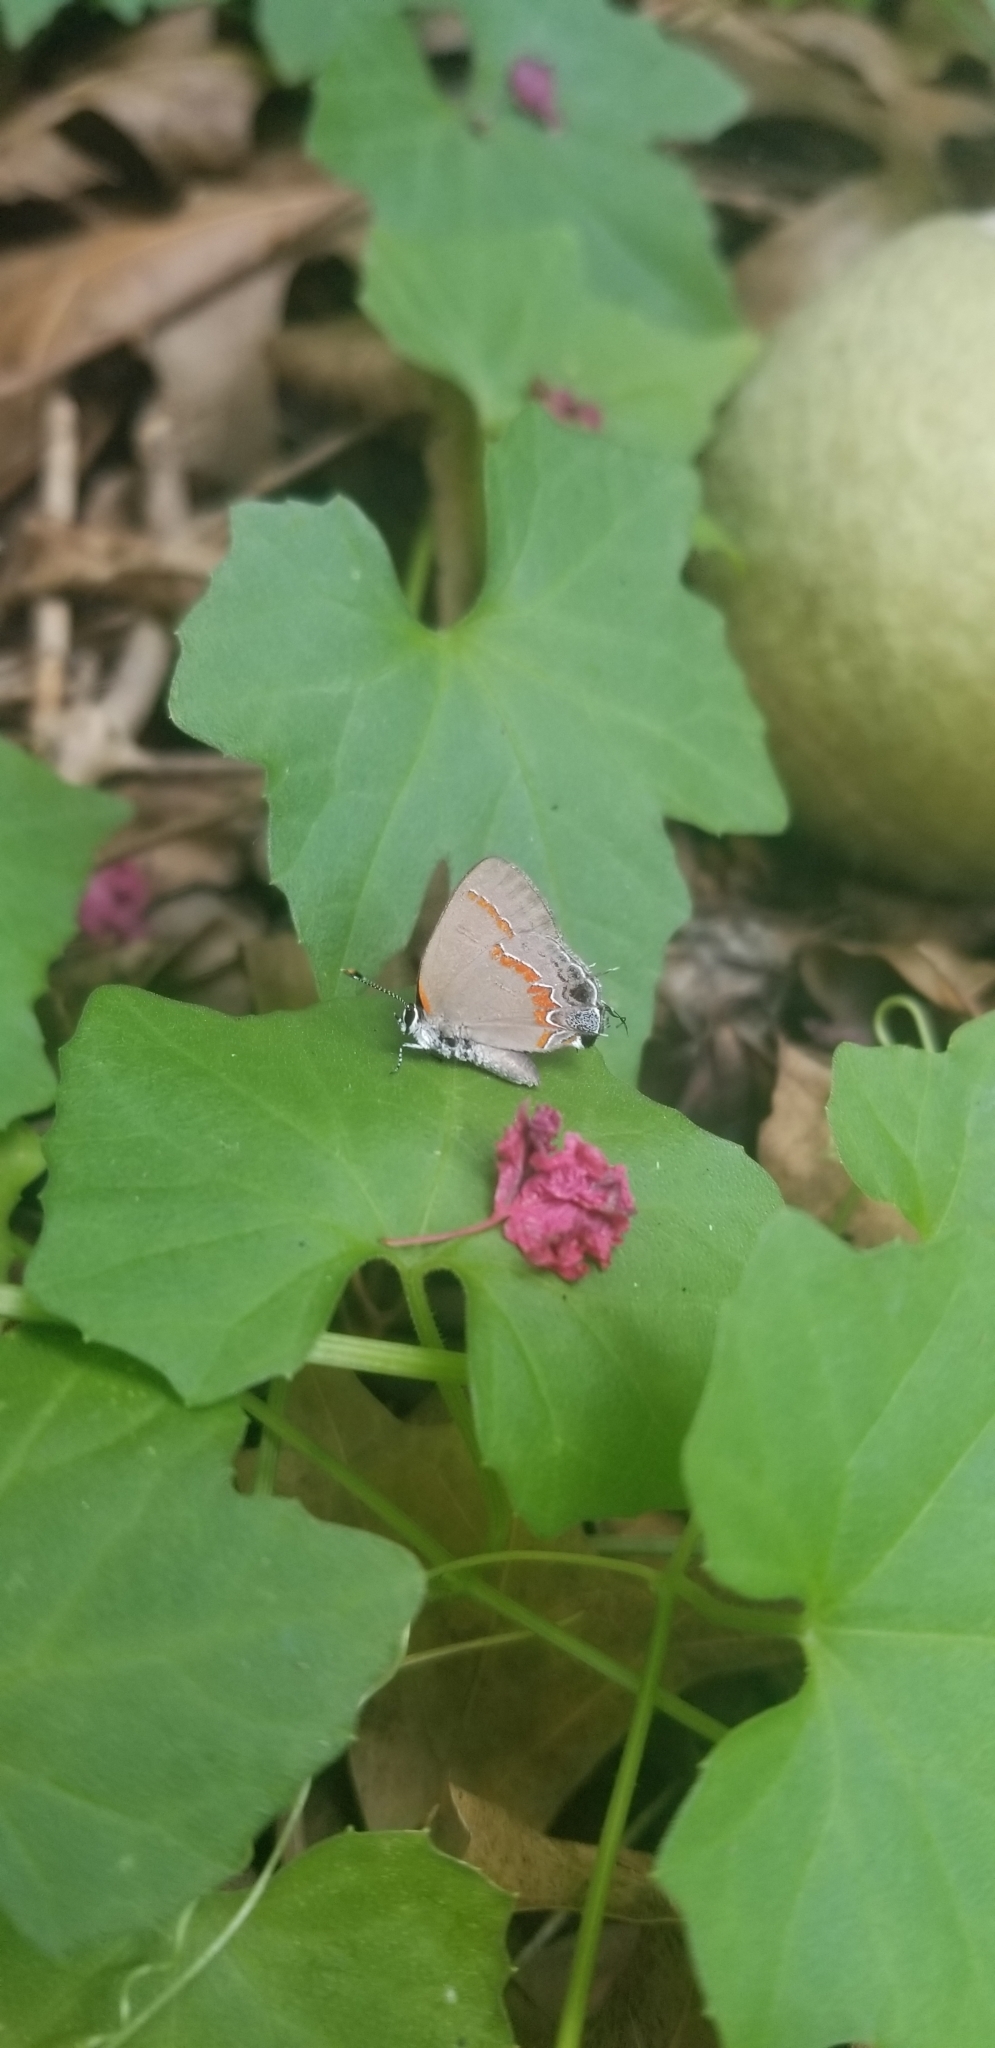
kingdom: Animalia
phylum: Arthropoda
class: Insecta
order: Lepidoptera
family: Lycaenidae
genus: Calycopis
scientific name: Calycopis cecrops
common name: Red-banded hairstreak
